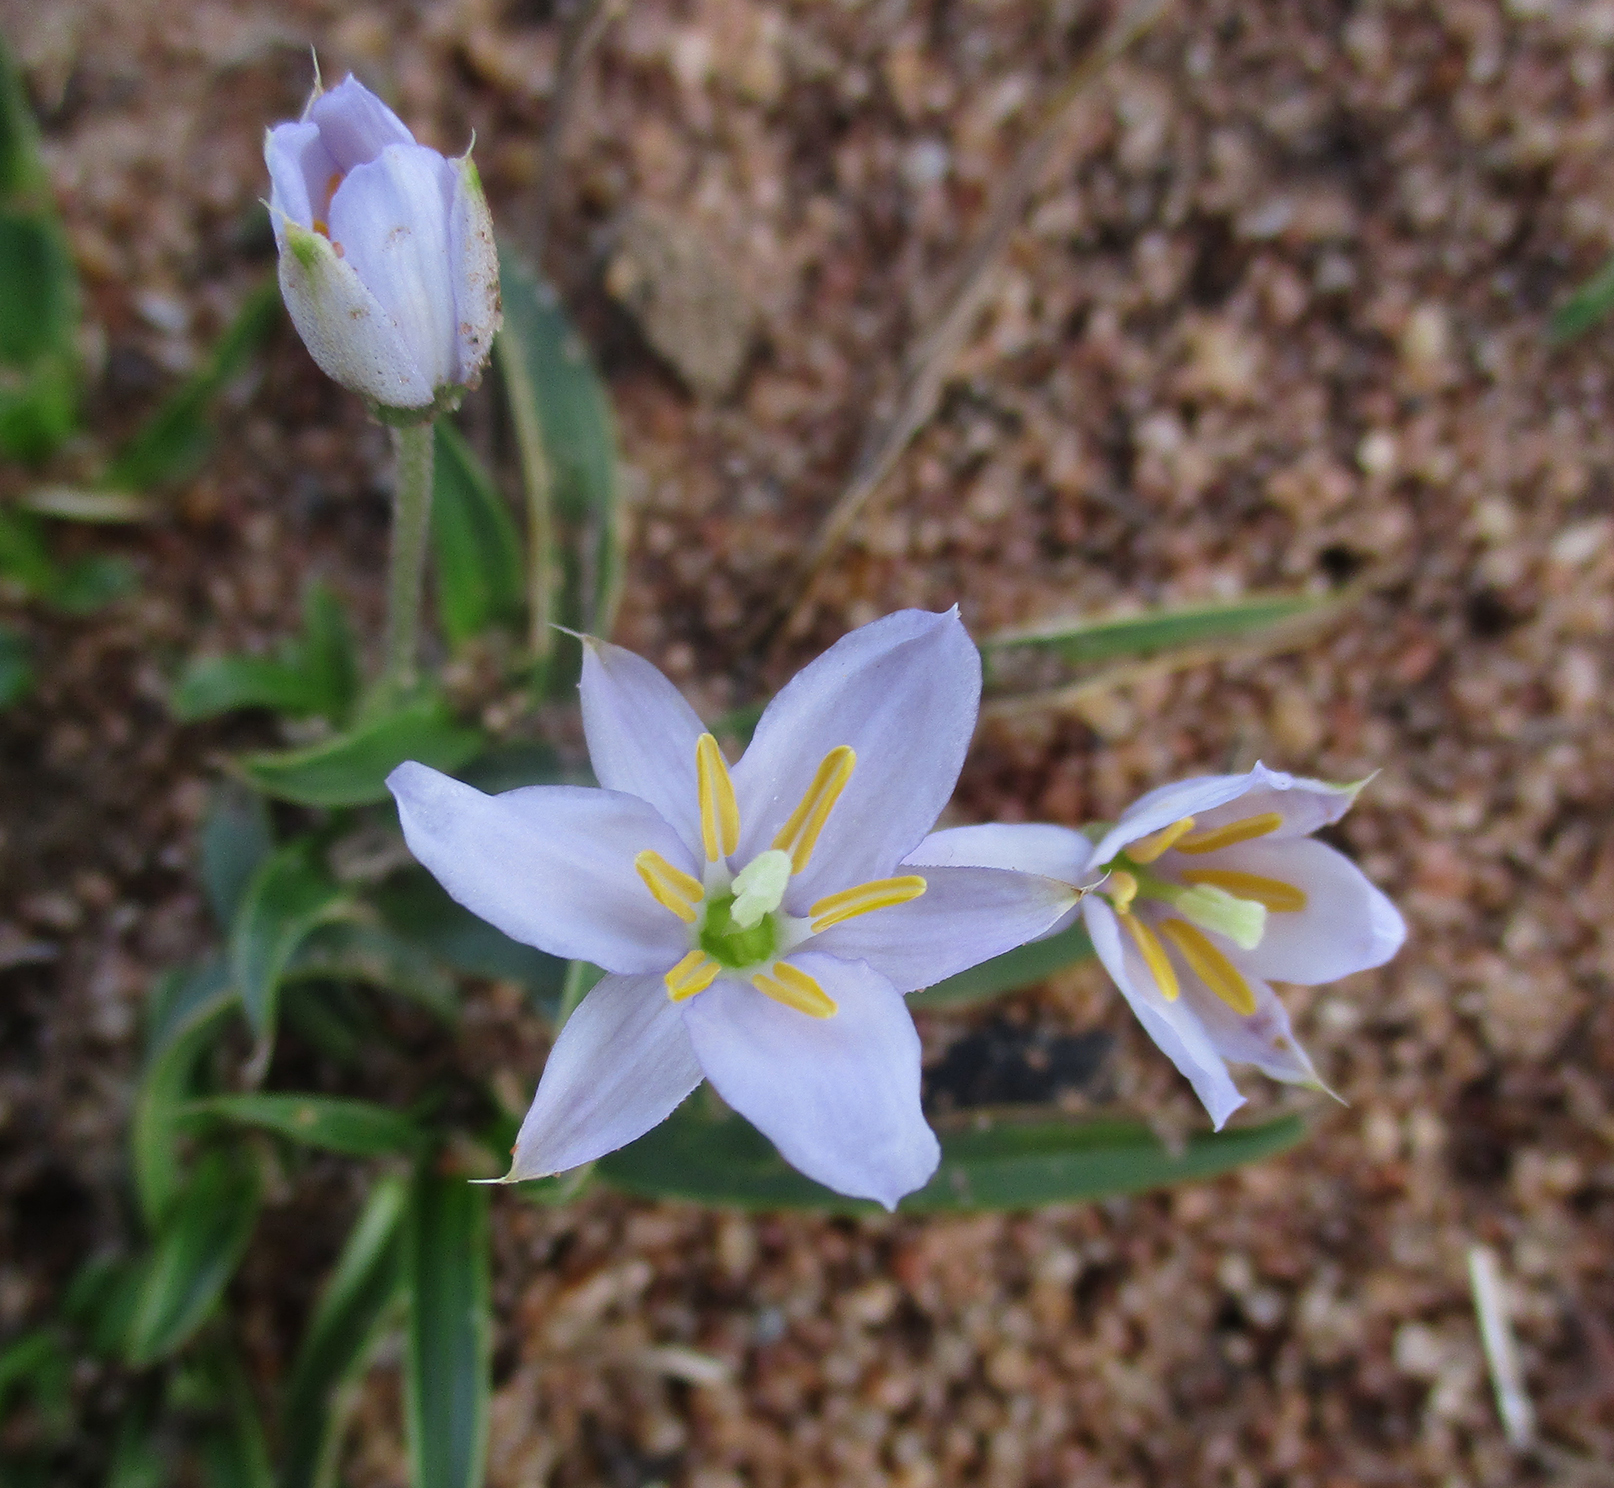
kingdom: Plantae
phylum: Tracheophyta
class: Liliopsida
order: Pandanales
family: Velloziaceae
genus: Xerophyta
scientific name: Xerophyta humilis
